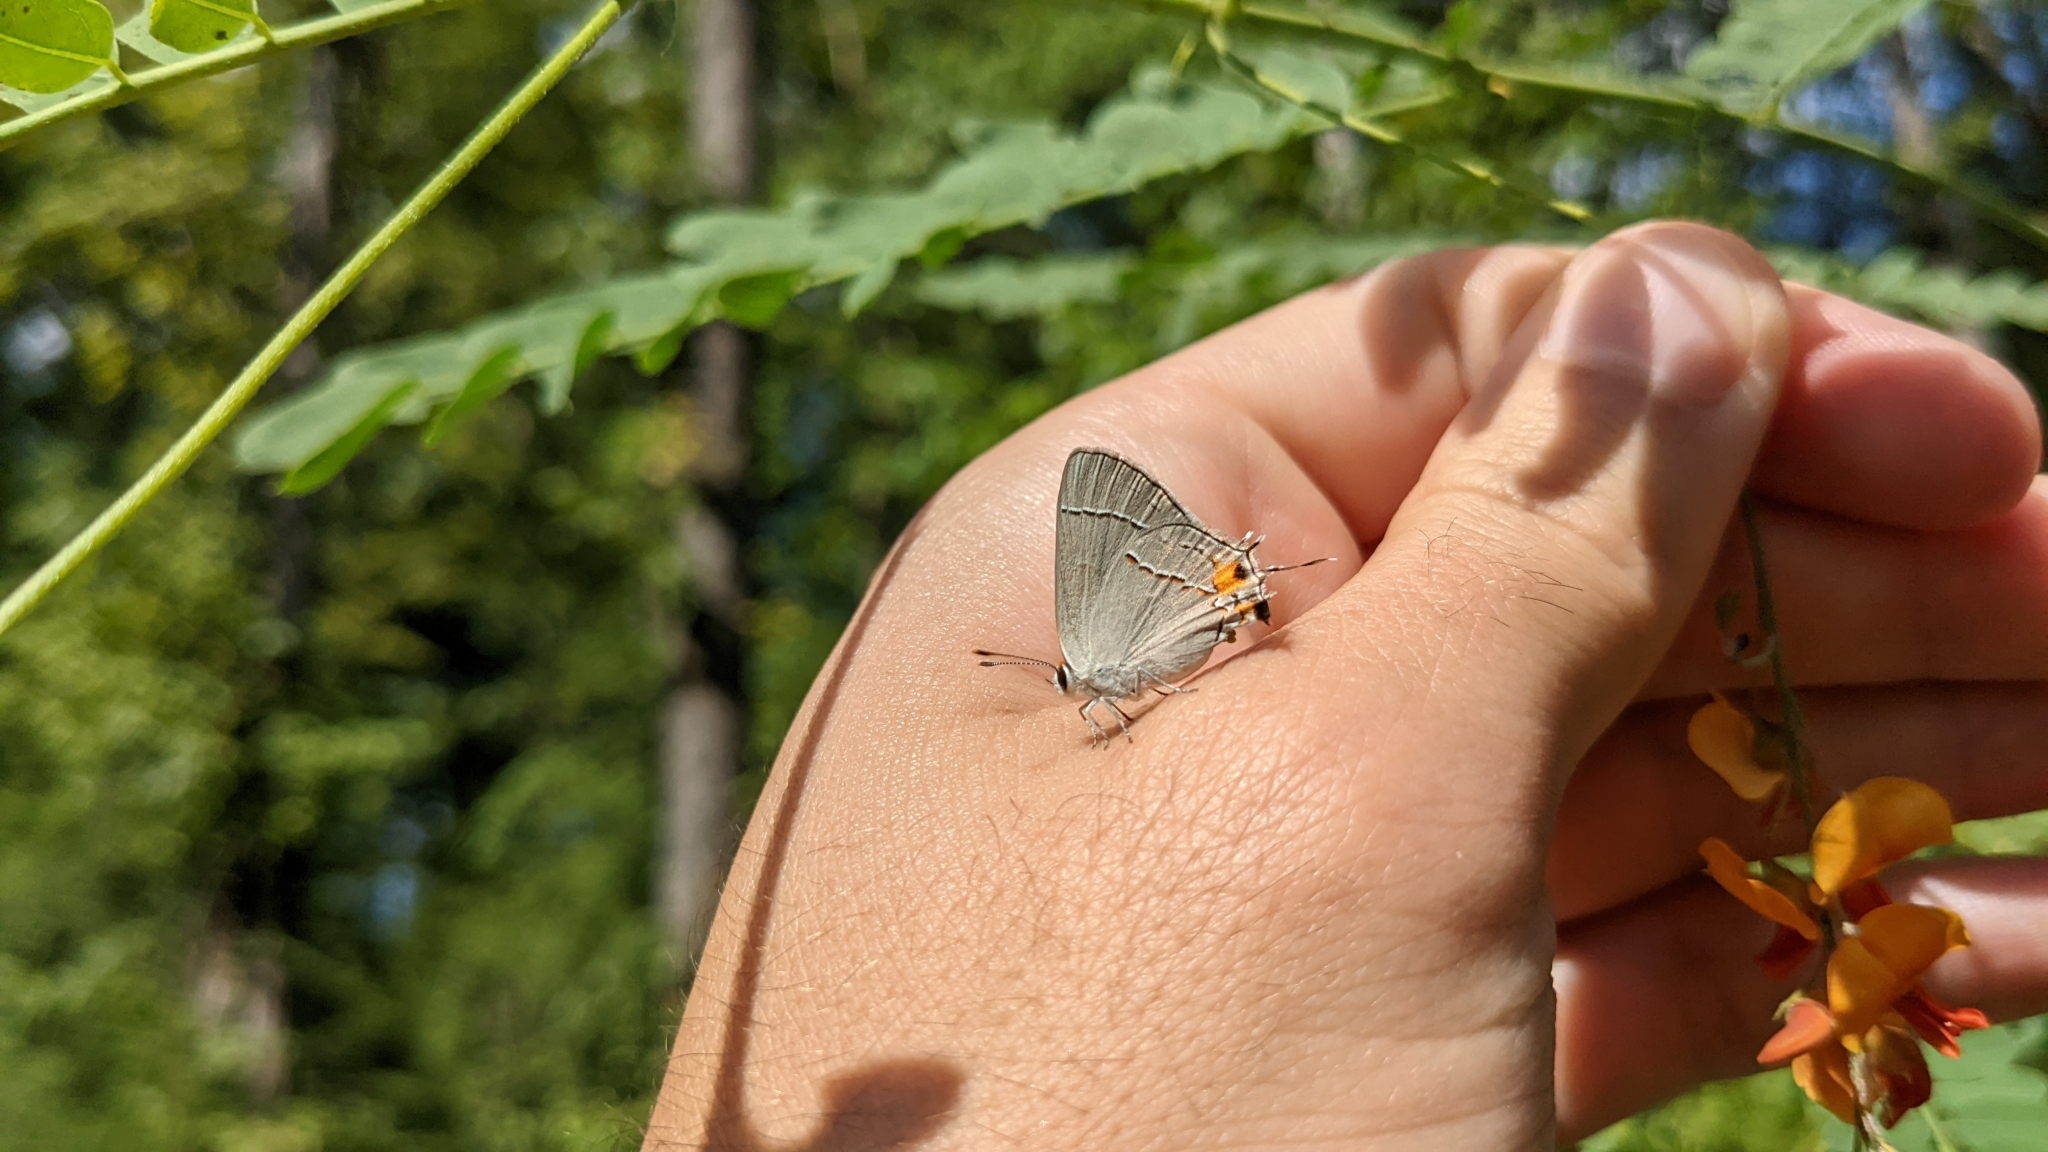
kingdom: Animalia
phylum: Arthropoda
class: Insecta
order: Lepidoptera
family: Lycaenidae
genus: Strymon
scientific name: Strymon melinus
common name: Gray hairstreak
